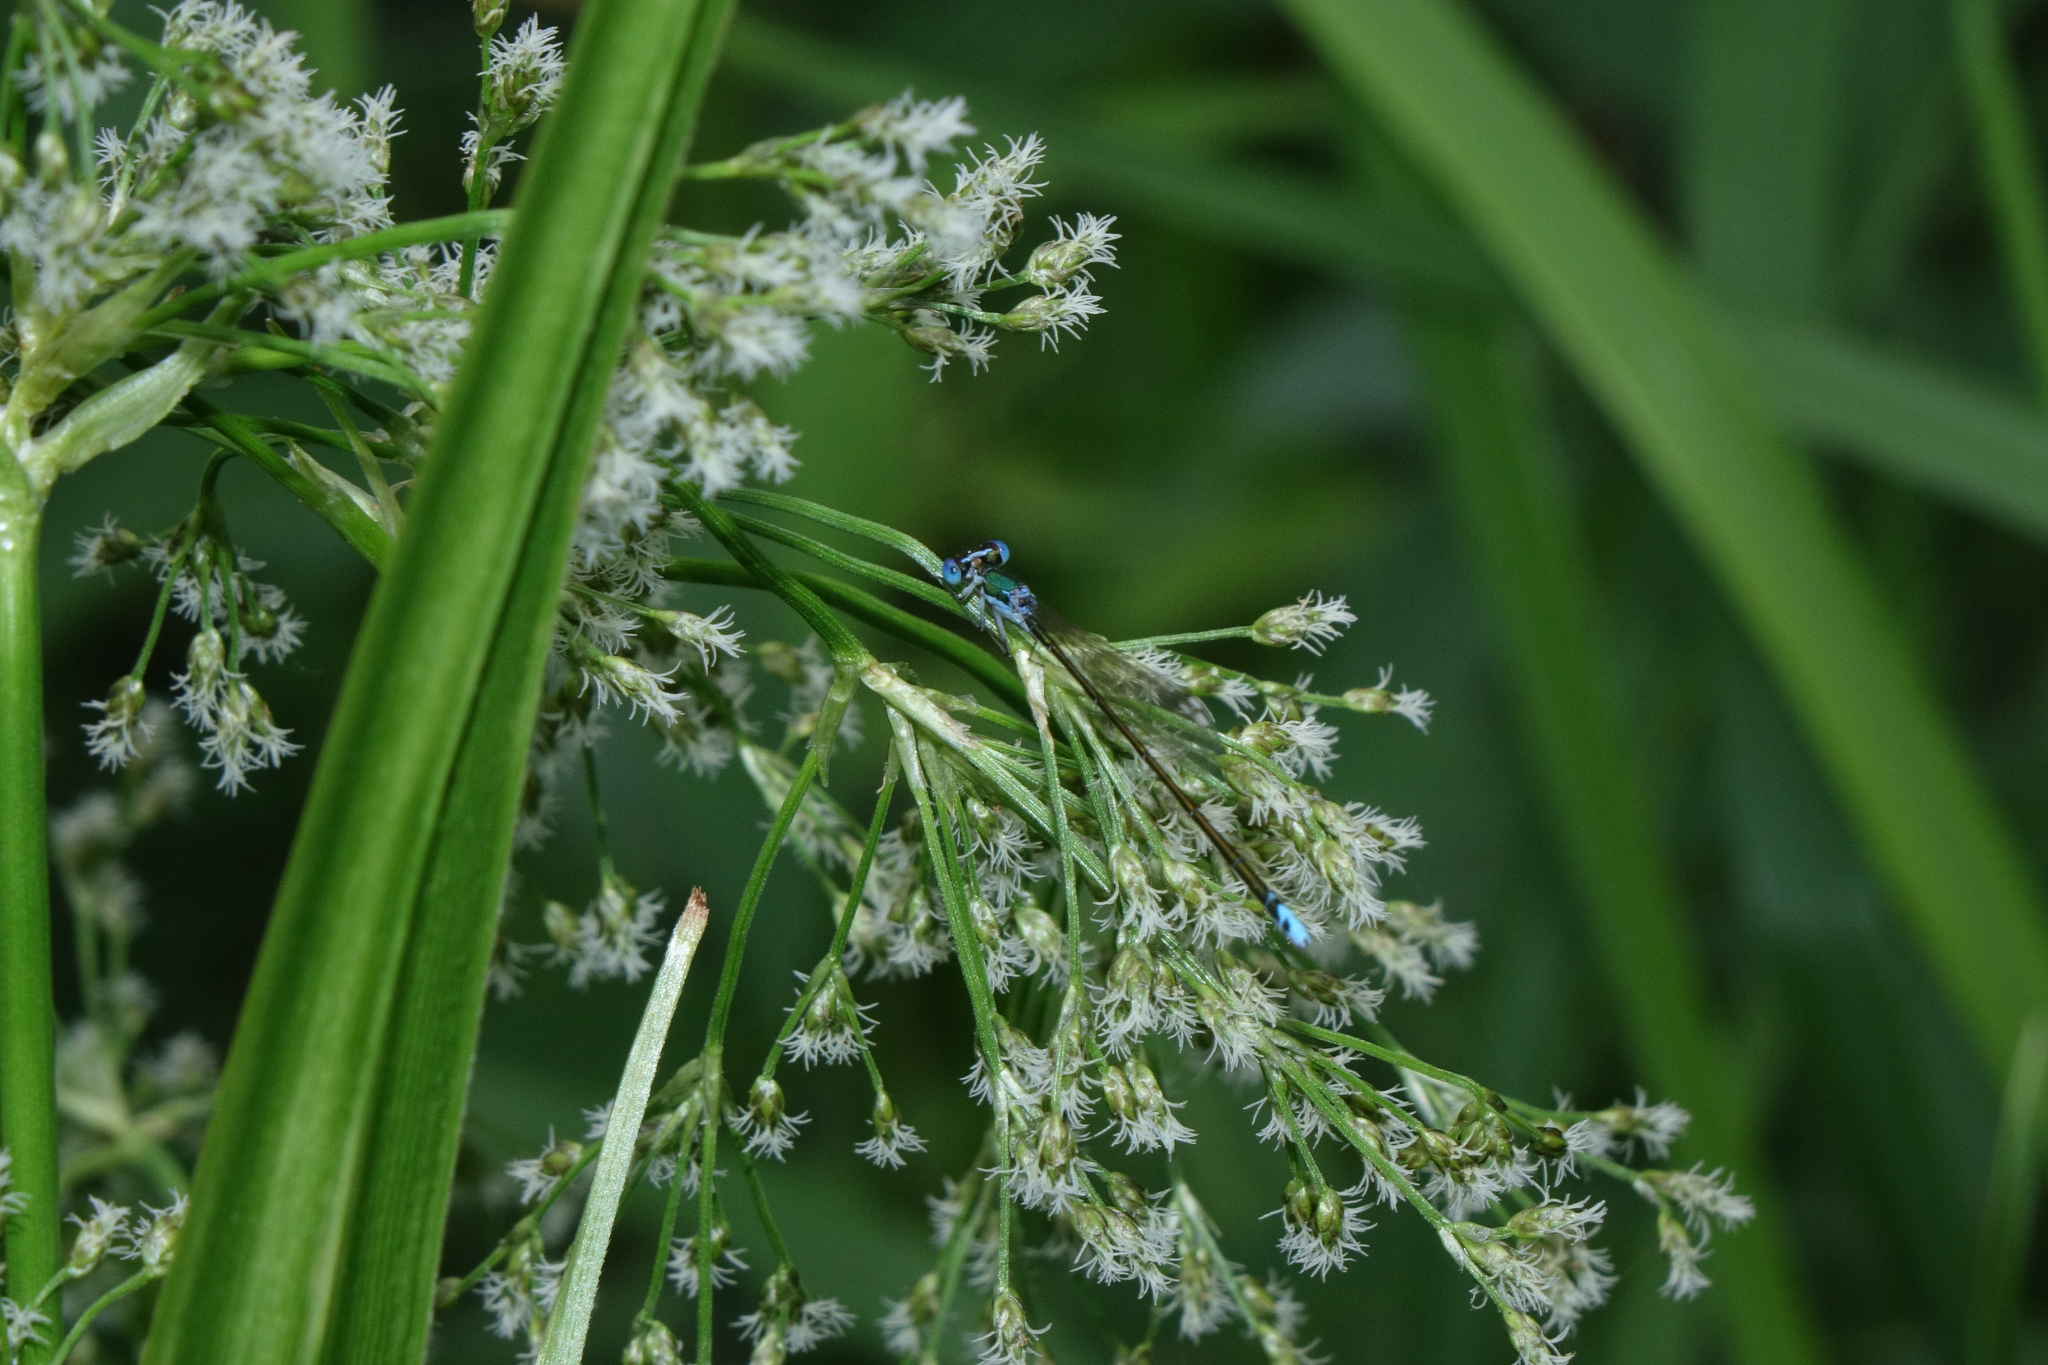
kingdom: Plantae
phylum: Tracheophyta
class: Liliopsida
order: Poales
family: Cyperaceae
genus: Scirpus
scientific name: Scirpus sylvaticus
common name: Wood club-rush
